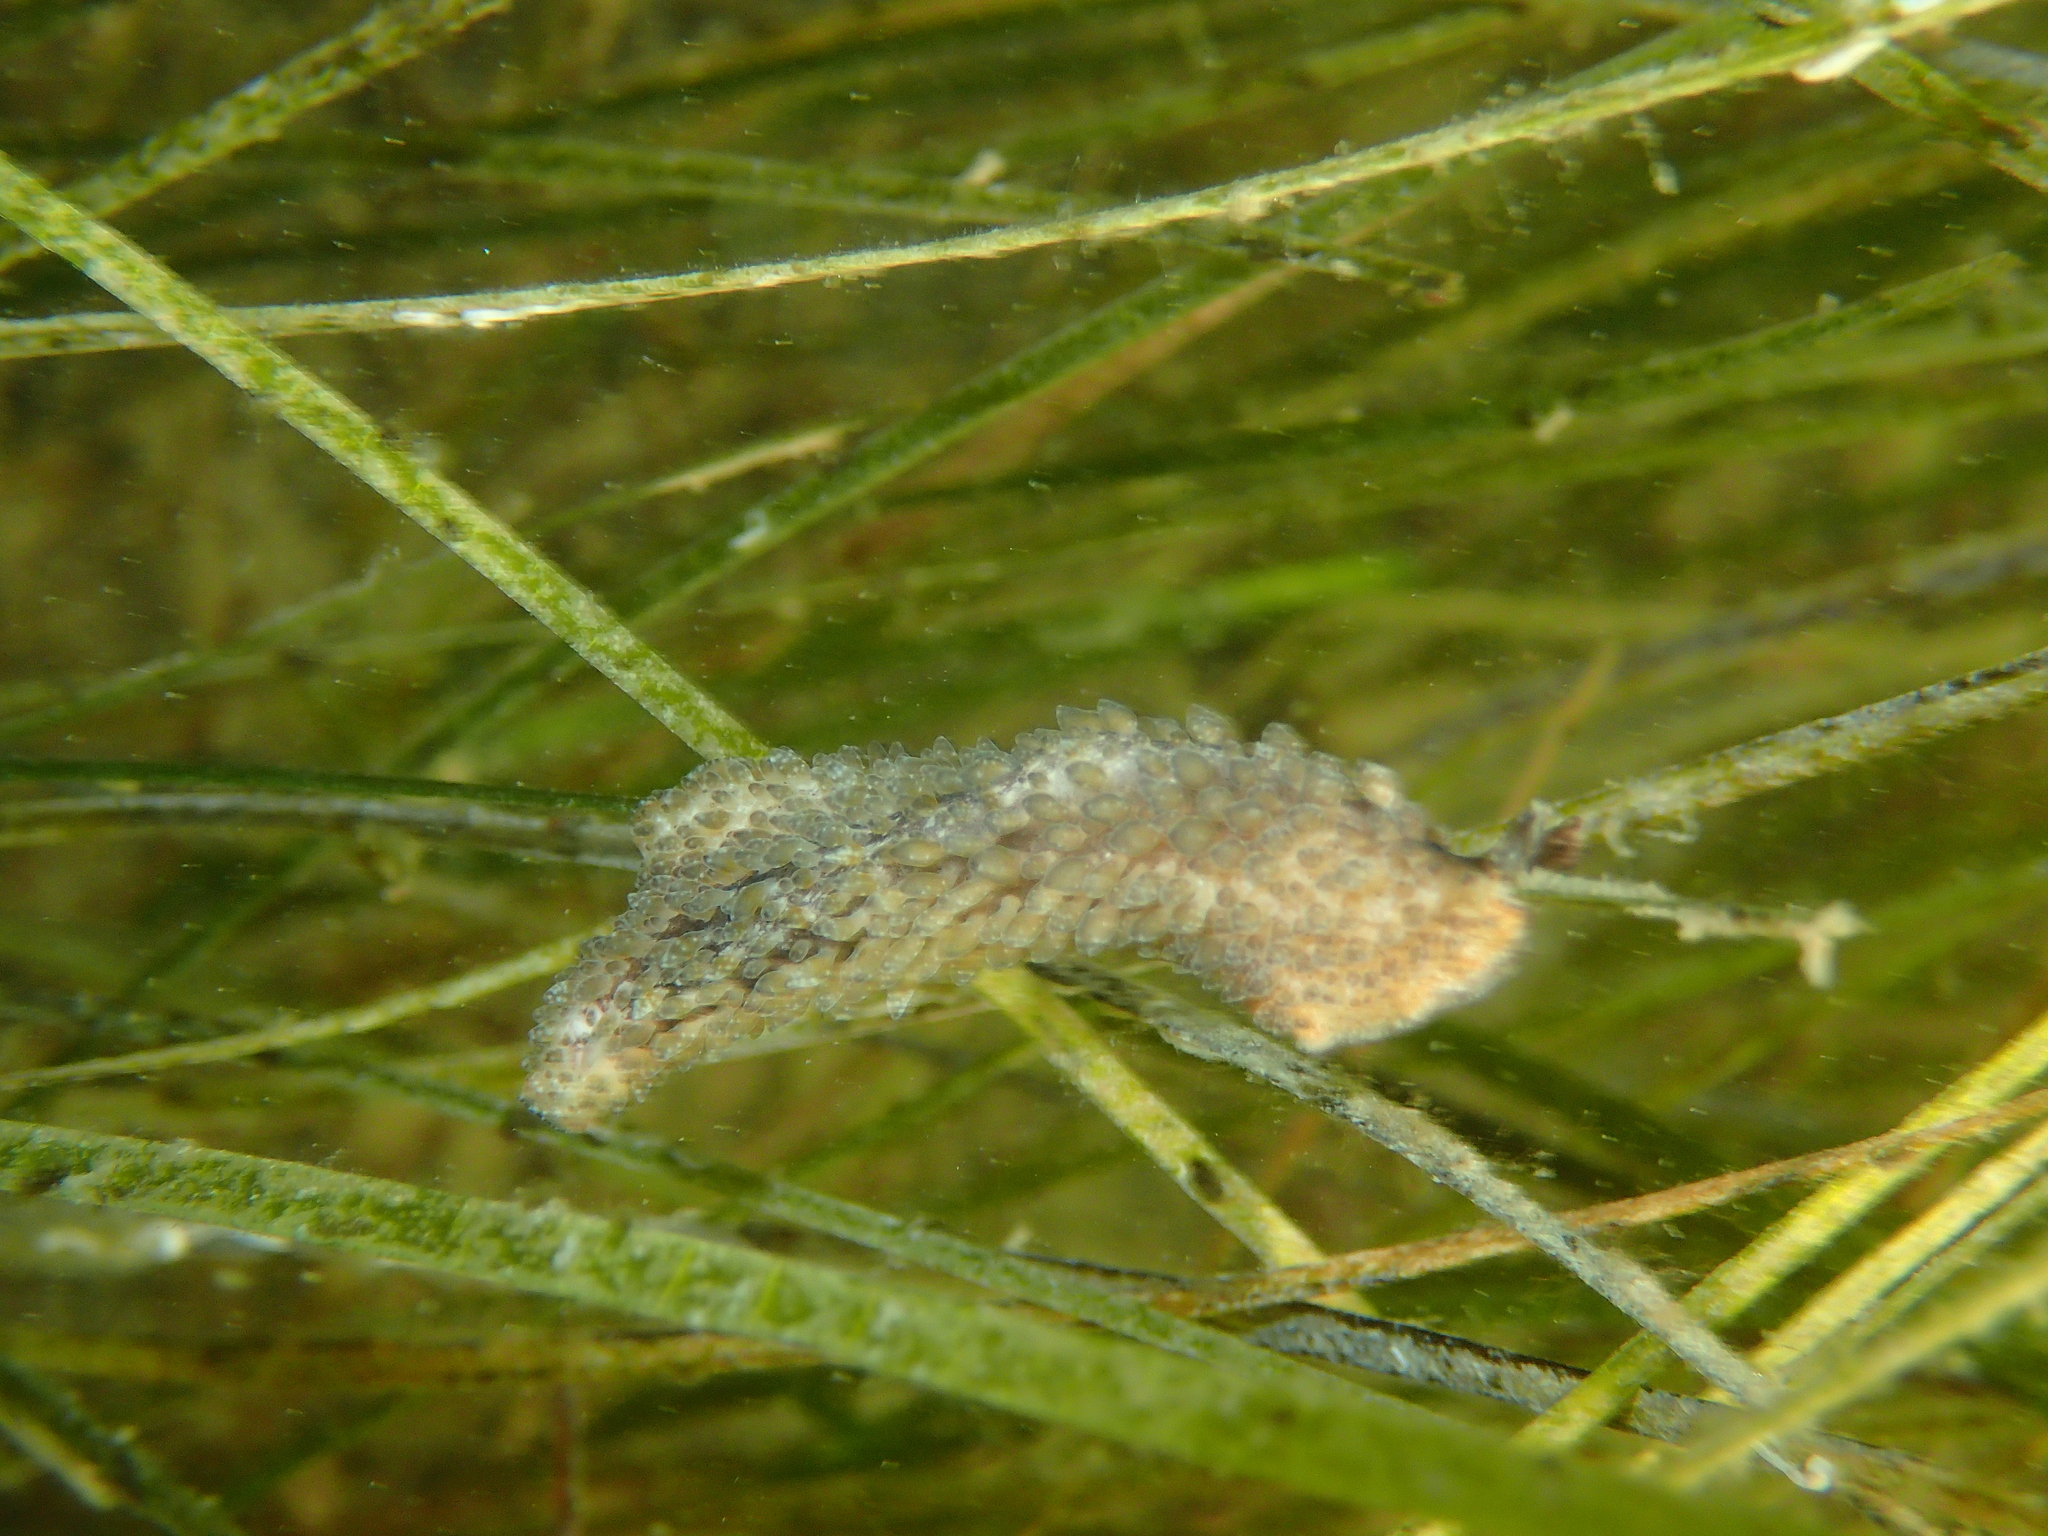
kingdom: Animalia
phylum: Platyhelminthes
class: Turbellaria
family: Pseudocerotidae
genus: Thysanozoon
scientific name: Thysanozoon brocchii
